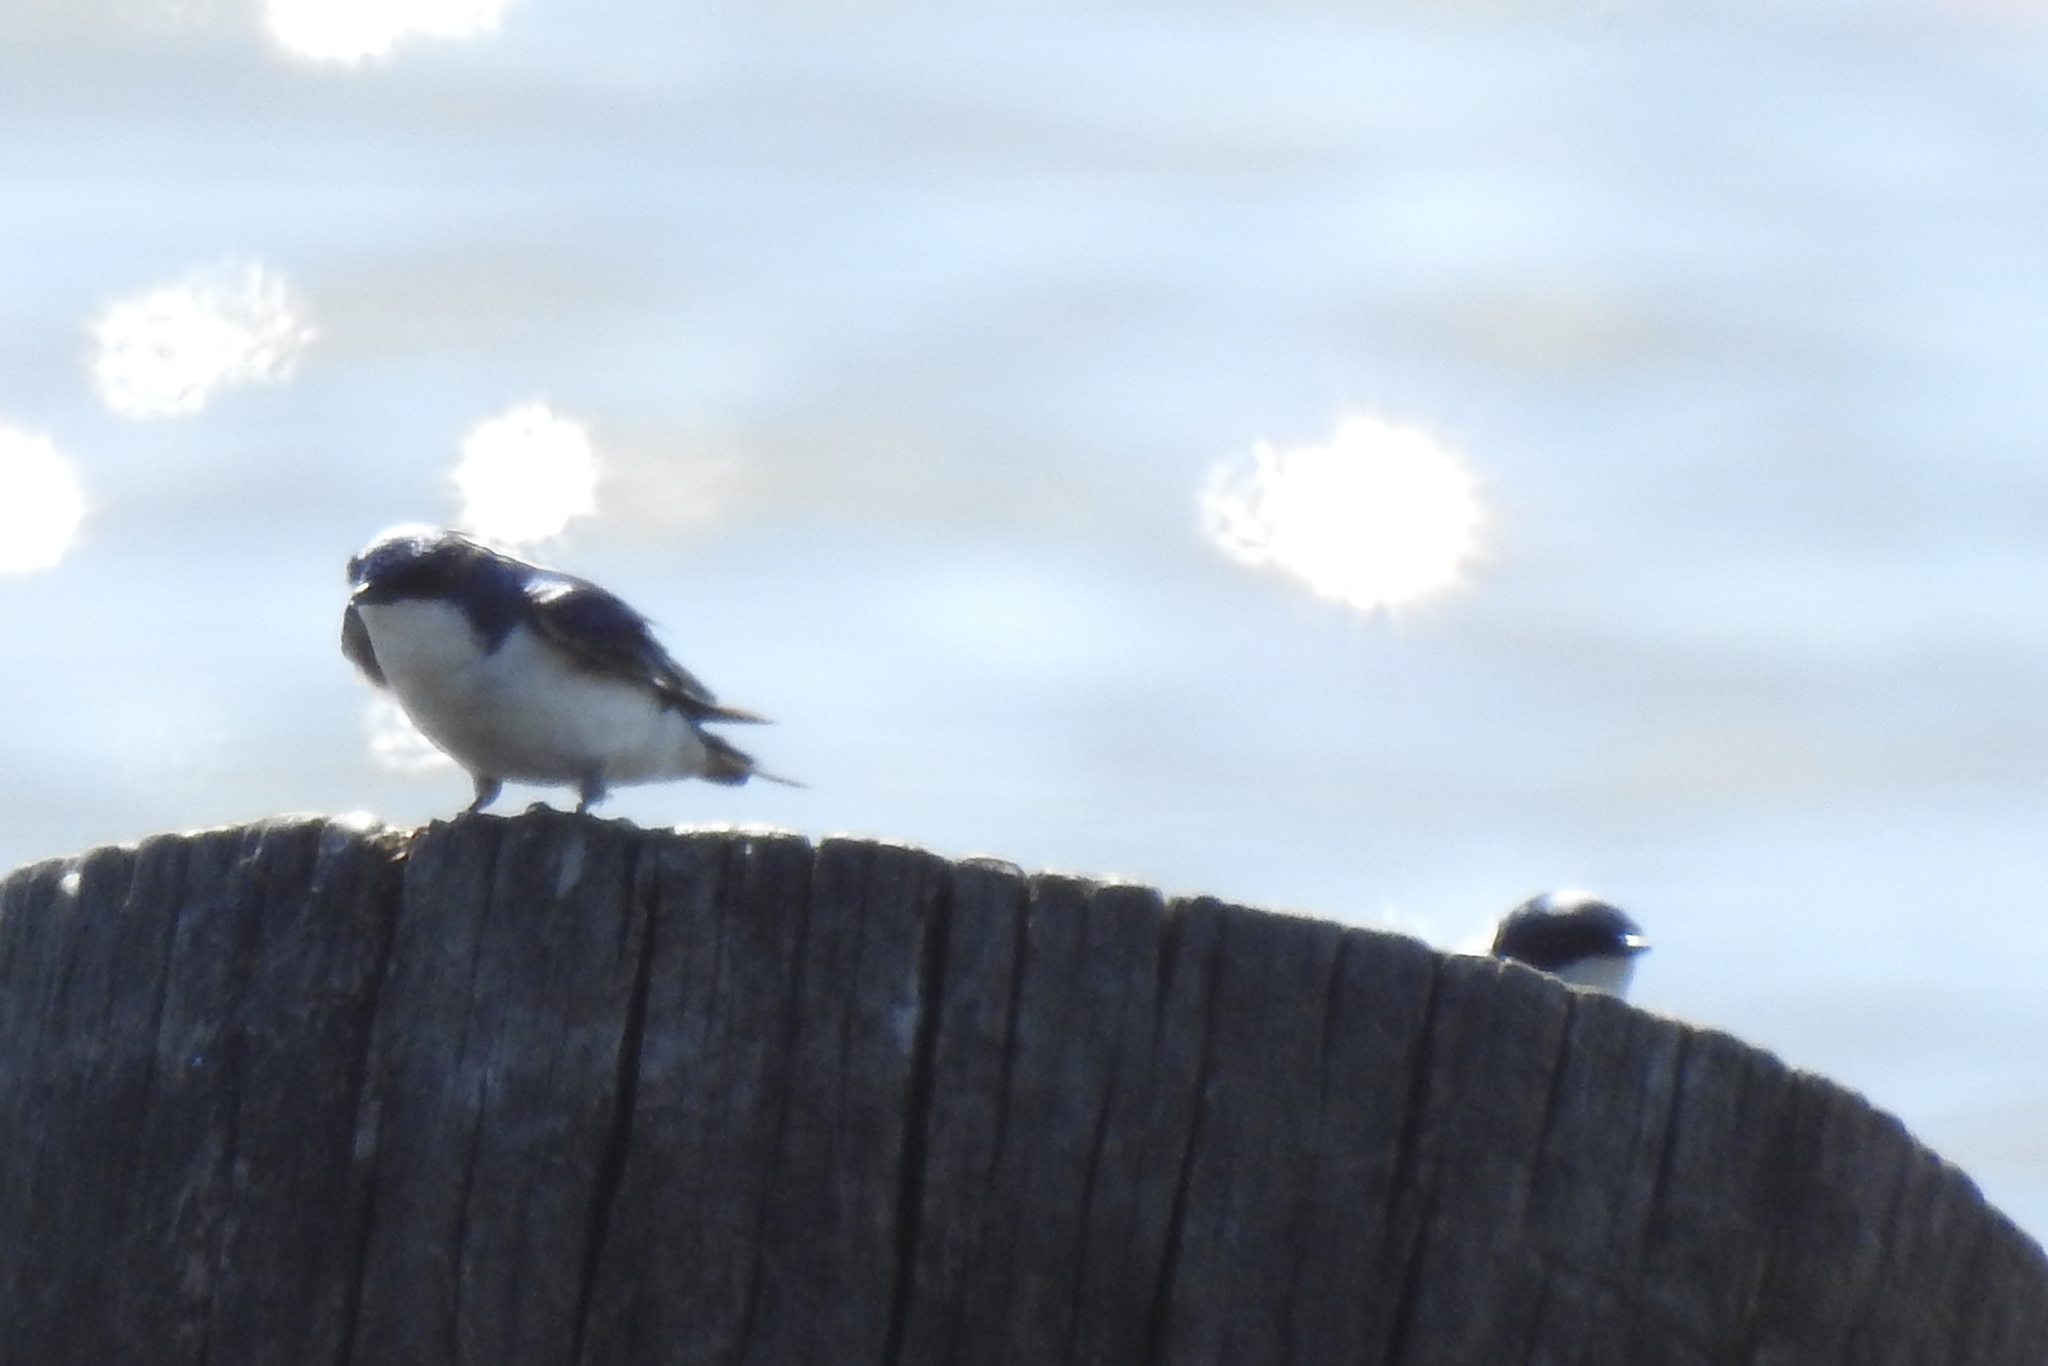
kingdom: Animalia
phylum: Chordata
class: Aves
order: Passeriformes
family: Hirundinidae
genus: Tachycineta
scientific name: Tachycineta bicolor
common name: Tree swallow
